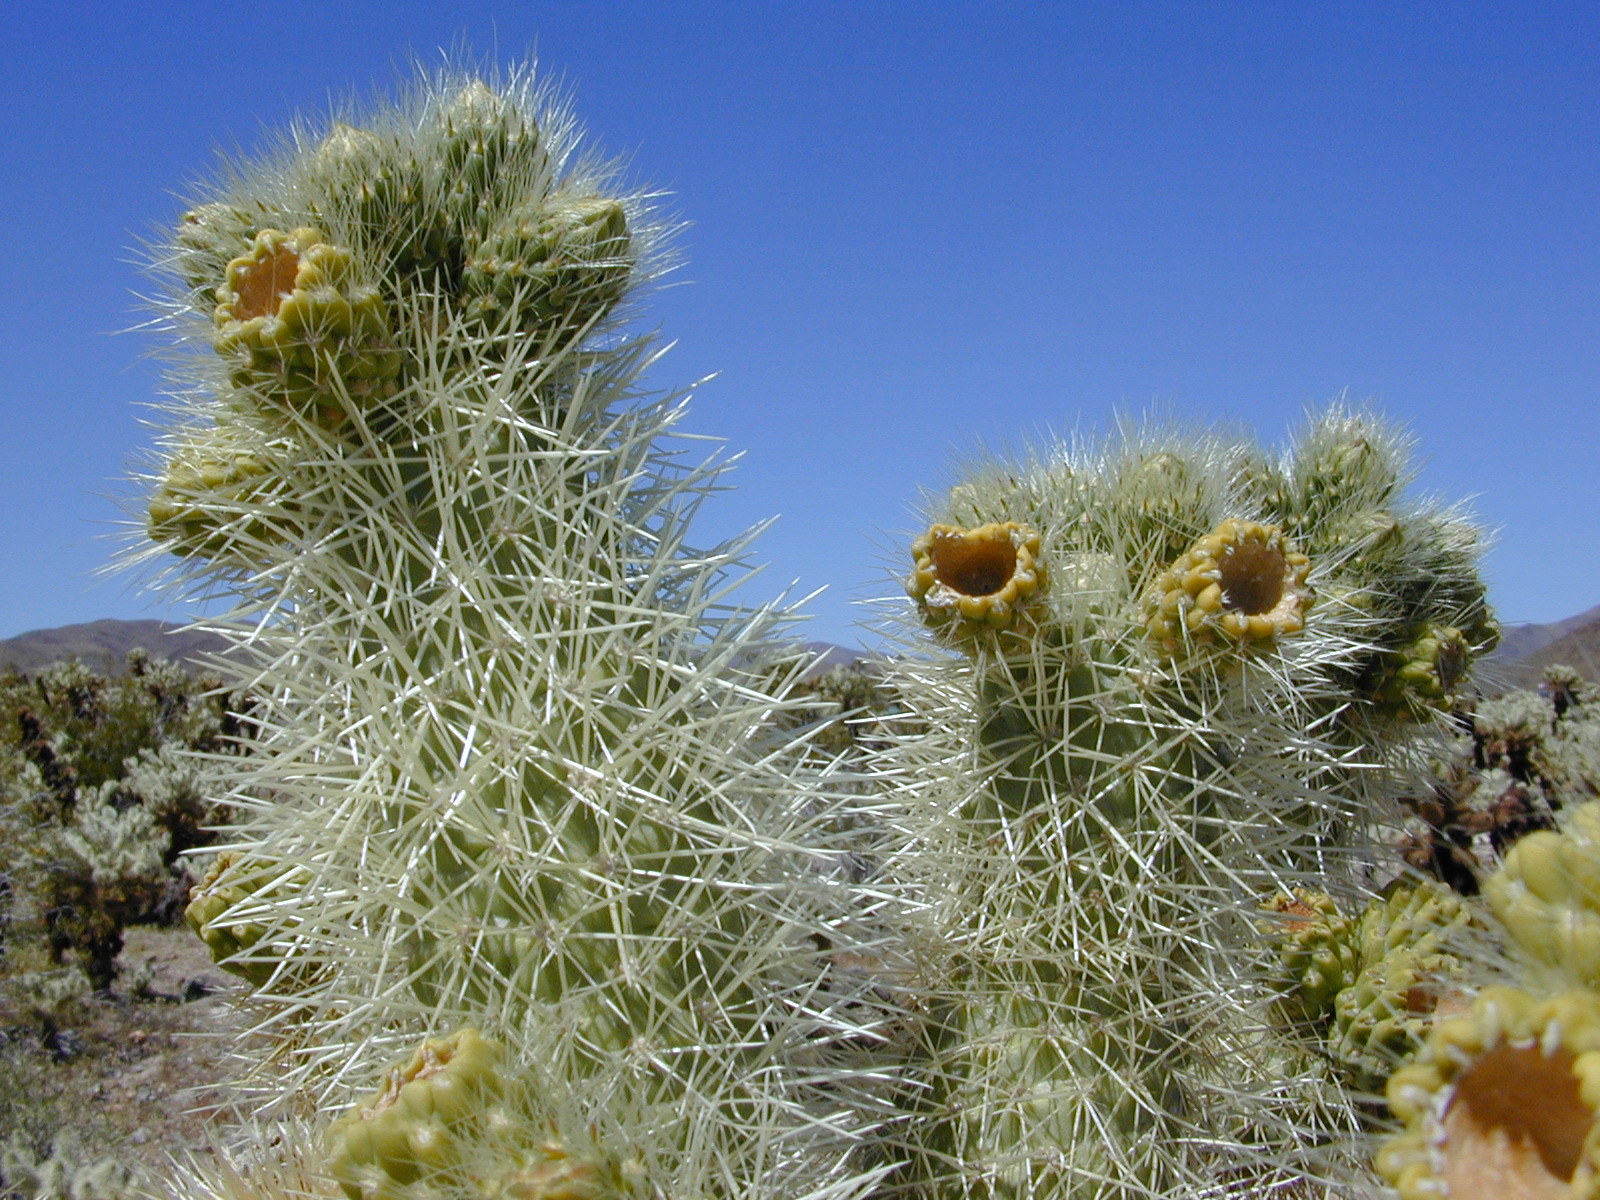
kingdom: Plantae
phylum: Tracheophyta
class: Magnoliopsida
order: Caryophyllales
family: Cactaceae
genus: Cylindropuntia
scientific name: Cylindropuntia fosbergii
